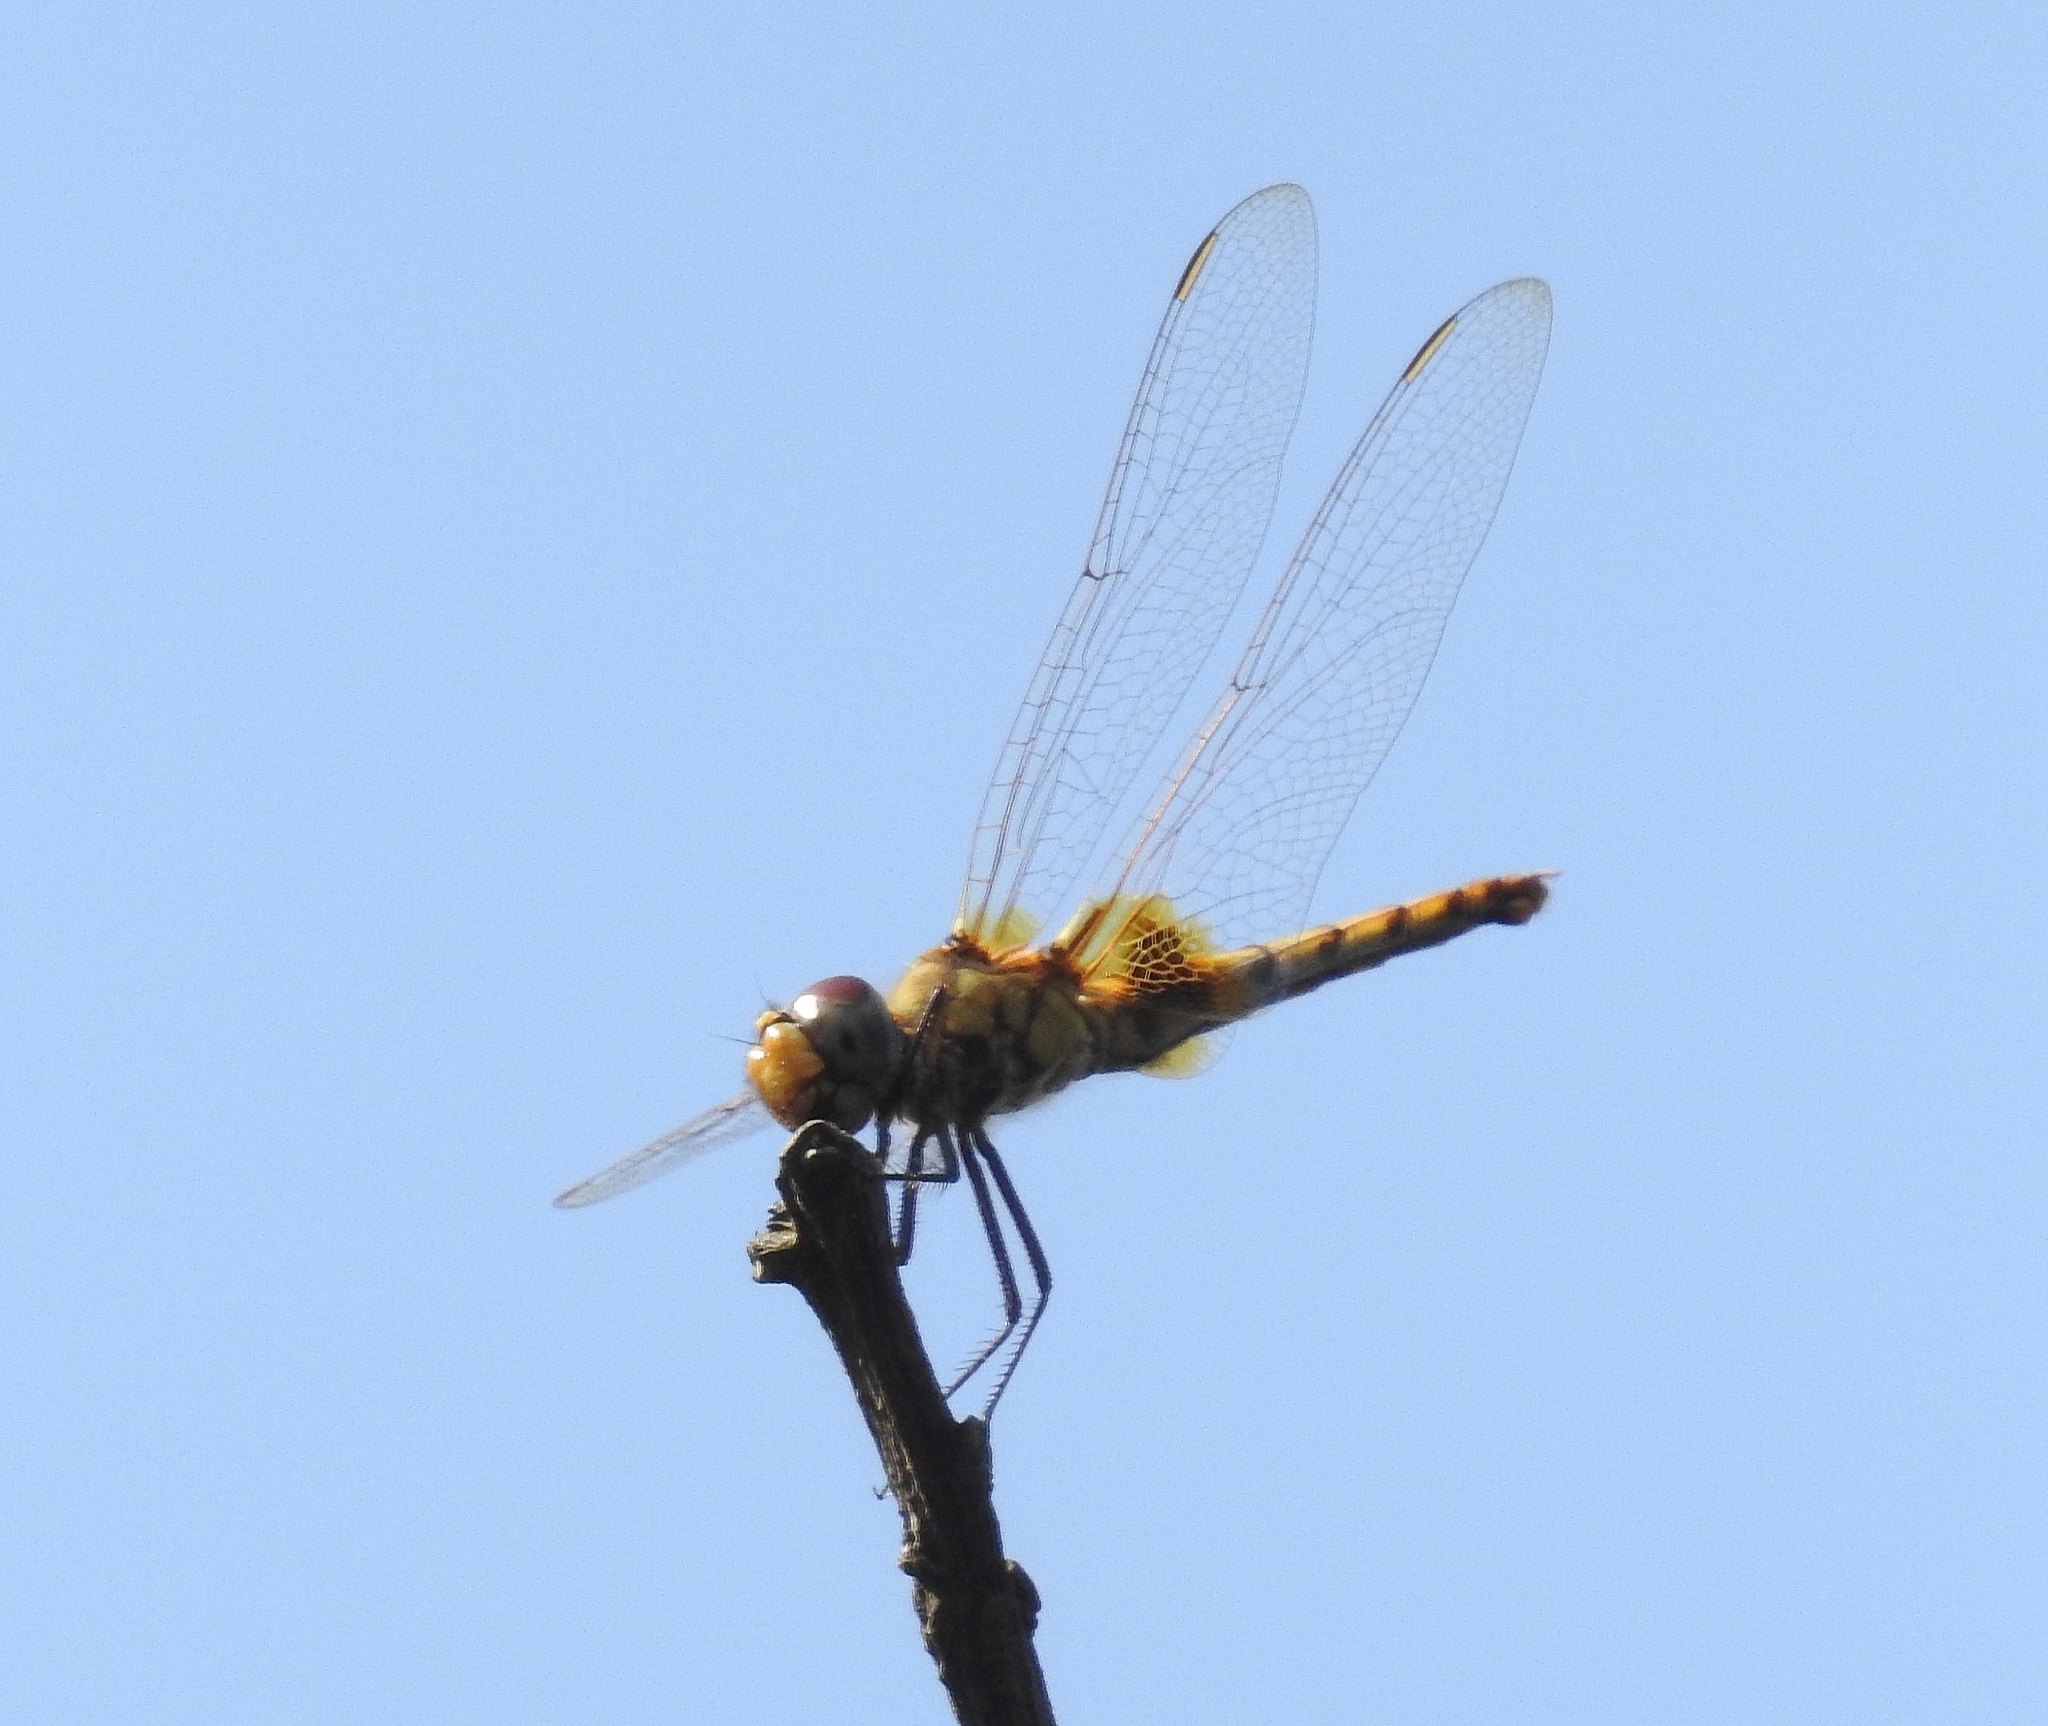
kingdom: Animalia
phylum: Arthropoda
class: Insecta
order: Odonata
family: Libellulidae
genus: Urothemis
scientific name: Urothemis signata
